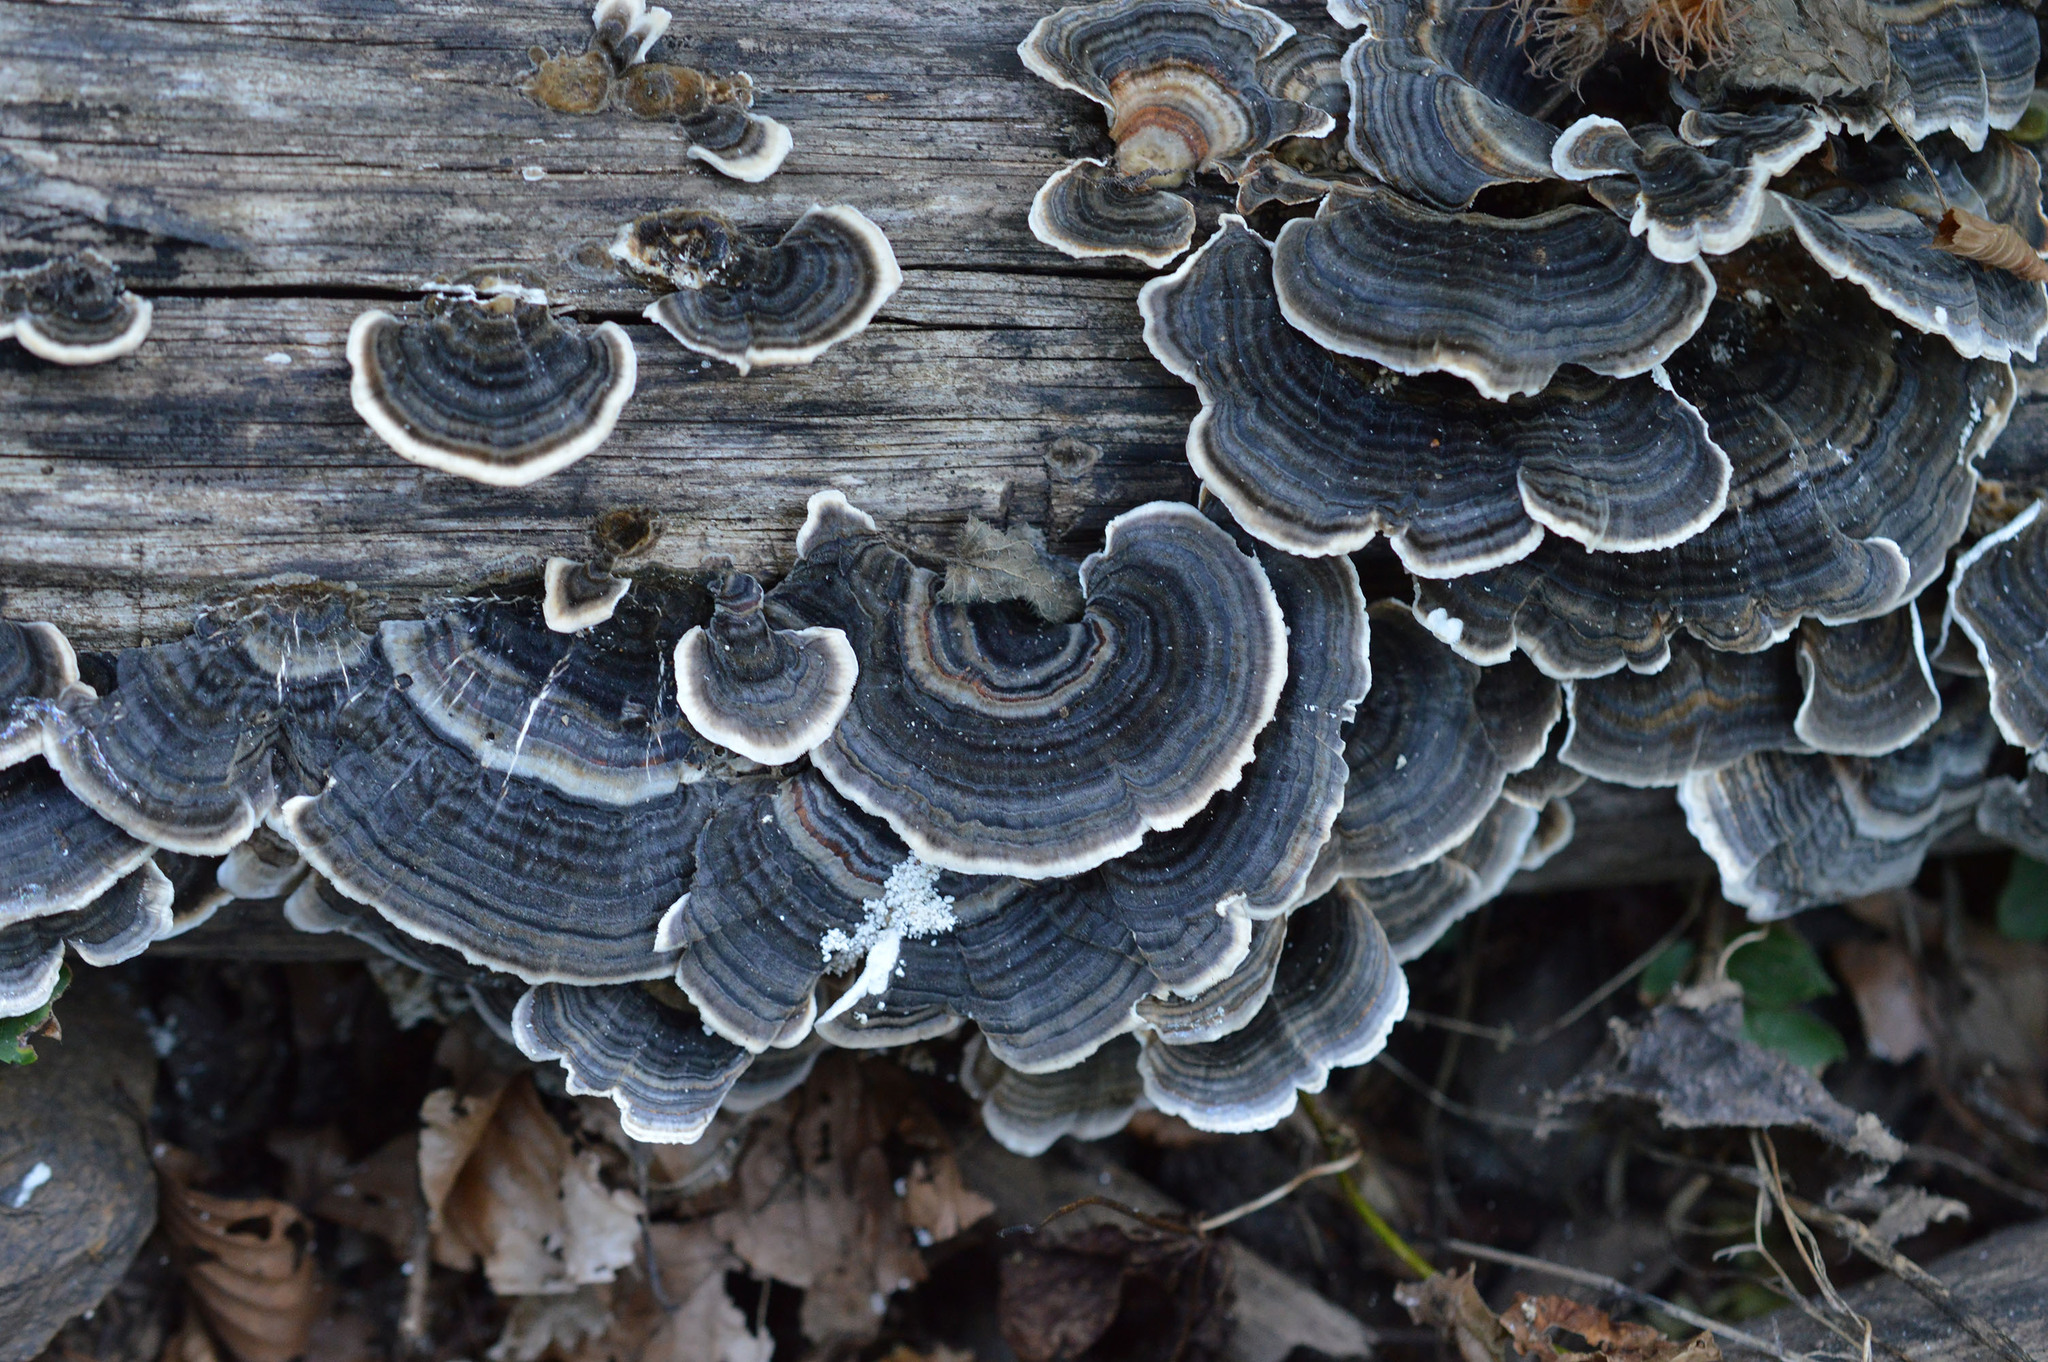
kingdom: Fungi
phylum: Basidiomycota
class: Agaricomycetes
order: Polyporales
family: Polyporaceae
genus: Trametes
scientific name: Trametes versicolor
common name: Turkeytail
